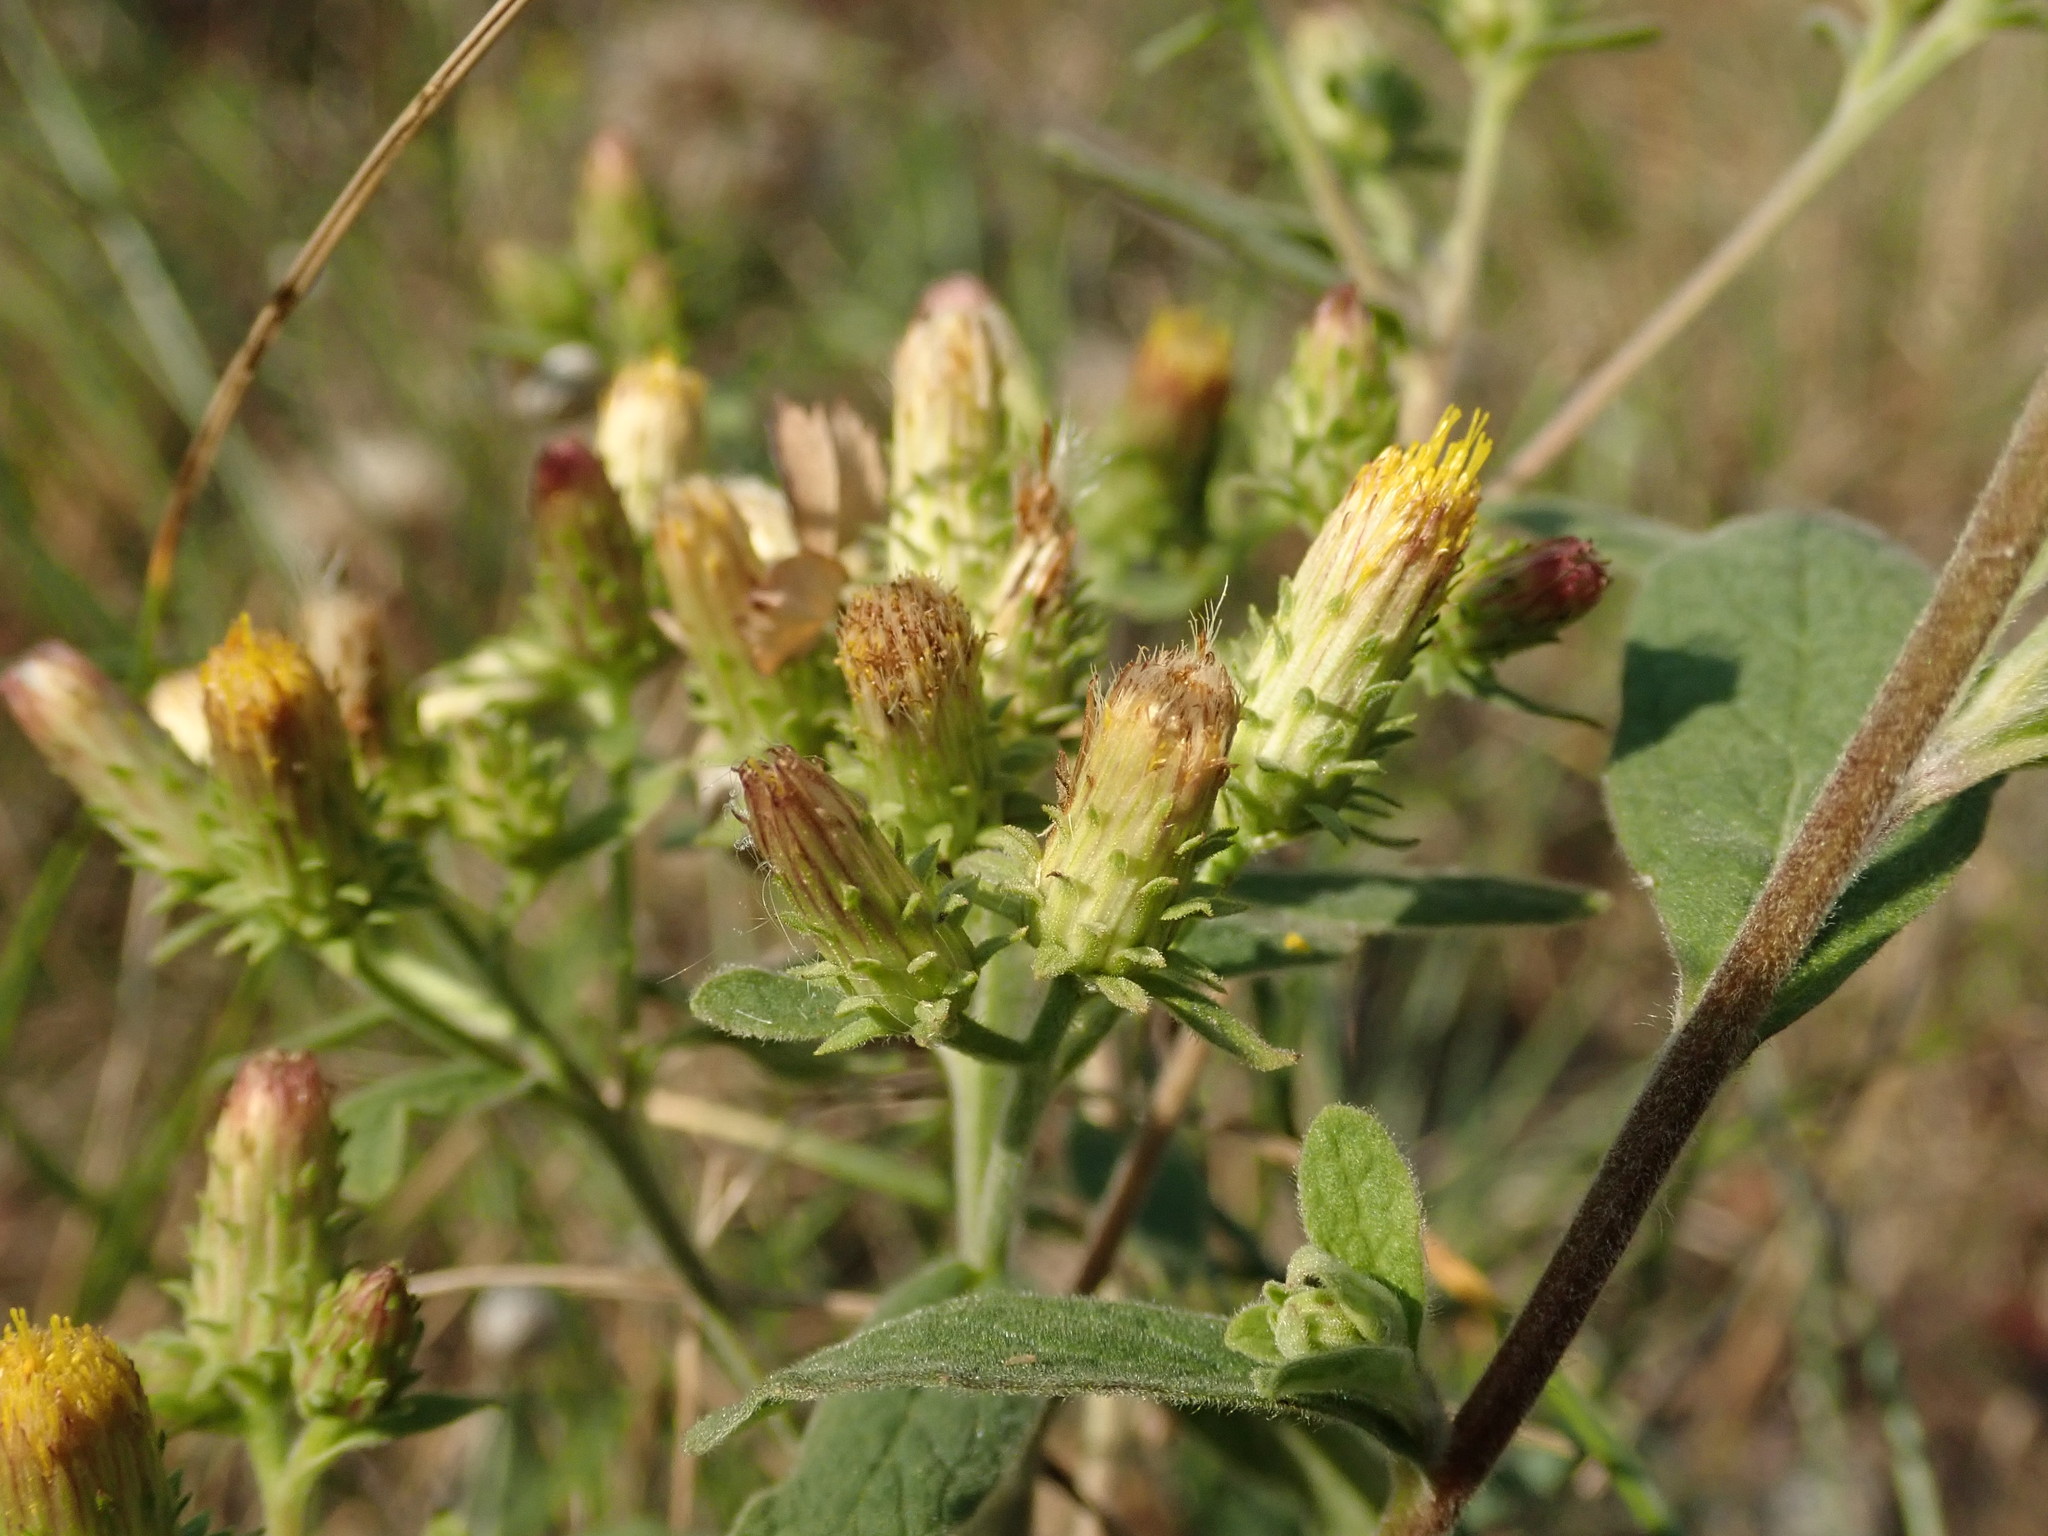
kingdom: Plantae
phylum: Tracheophyta
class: Magnoliopsida
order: Asterales
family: Asteraceae
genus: Pentanema
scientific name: Pentanema squarrosum
